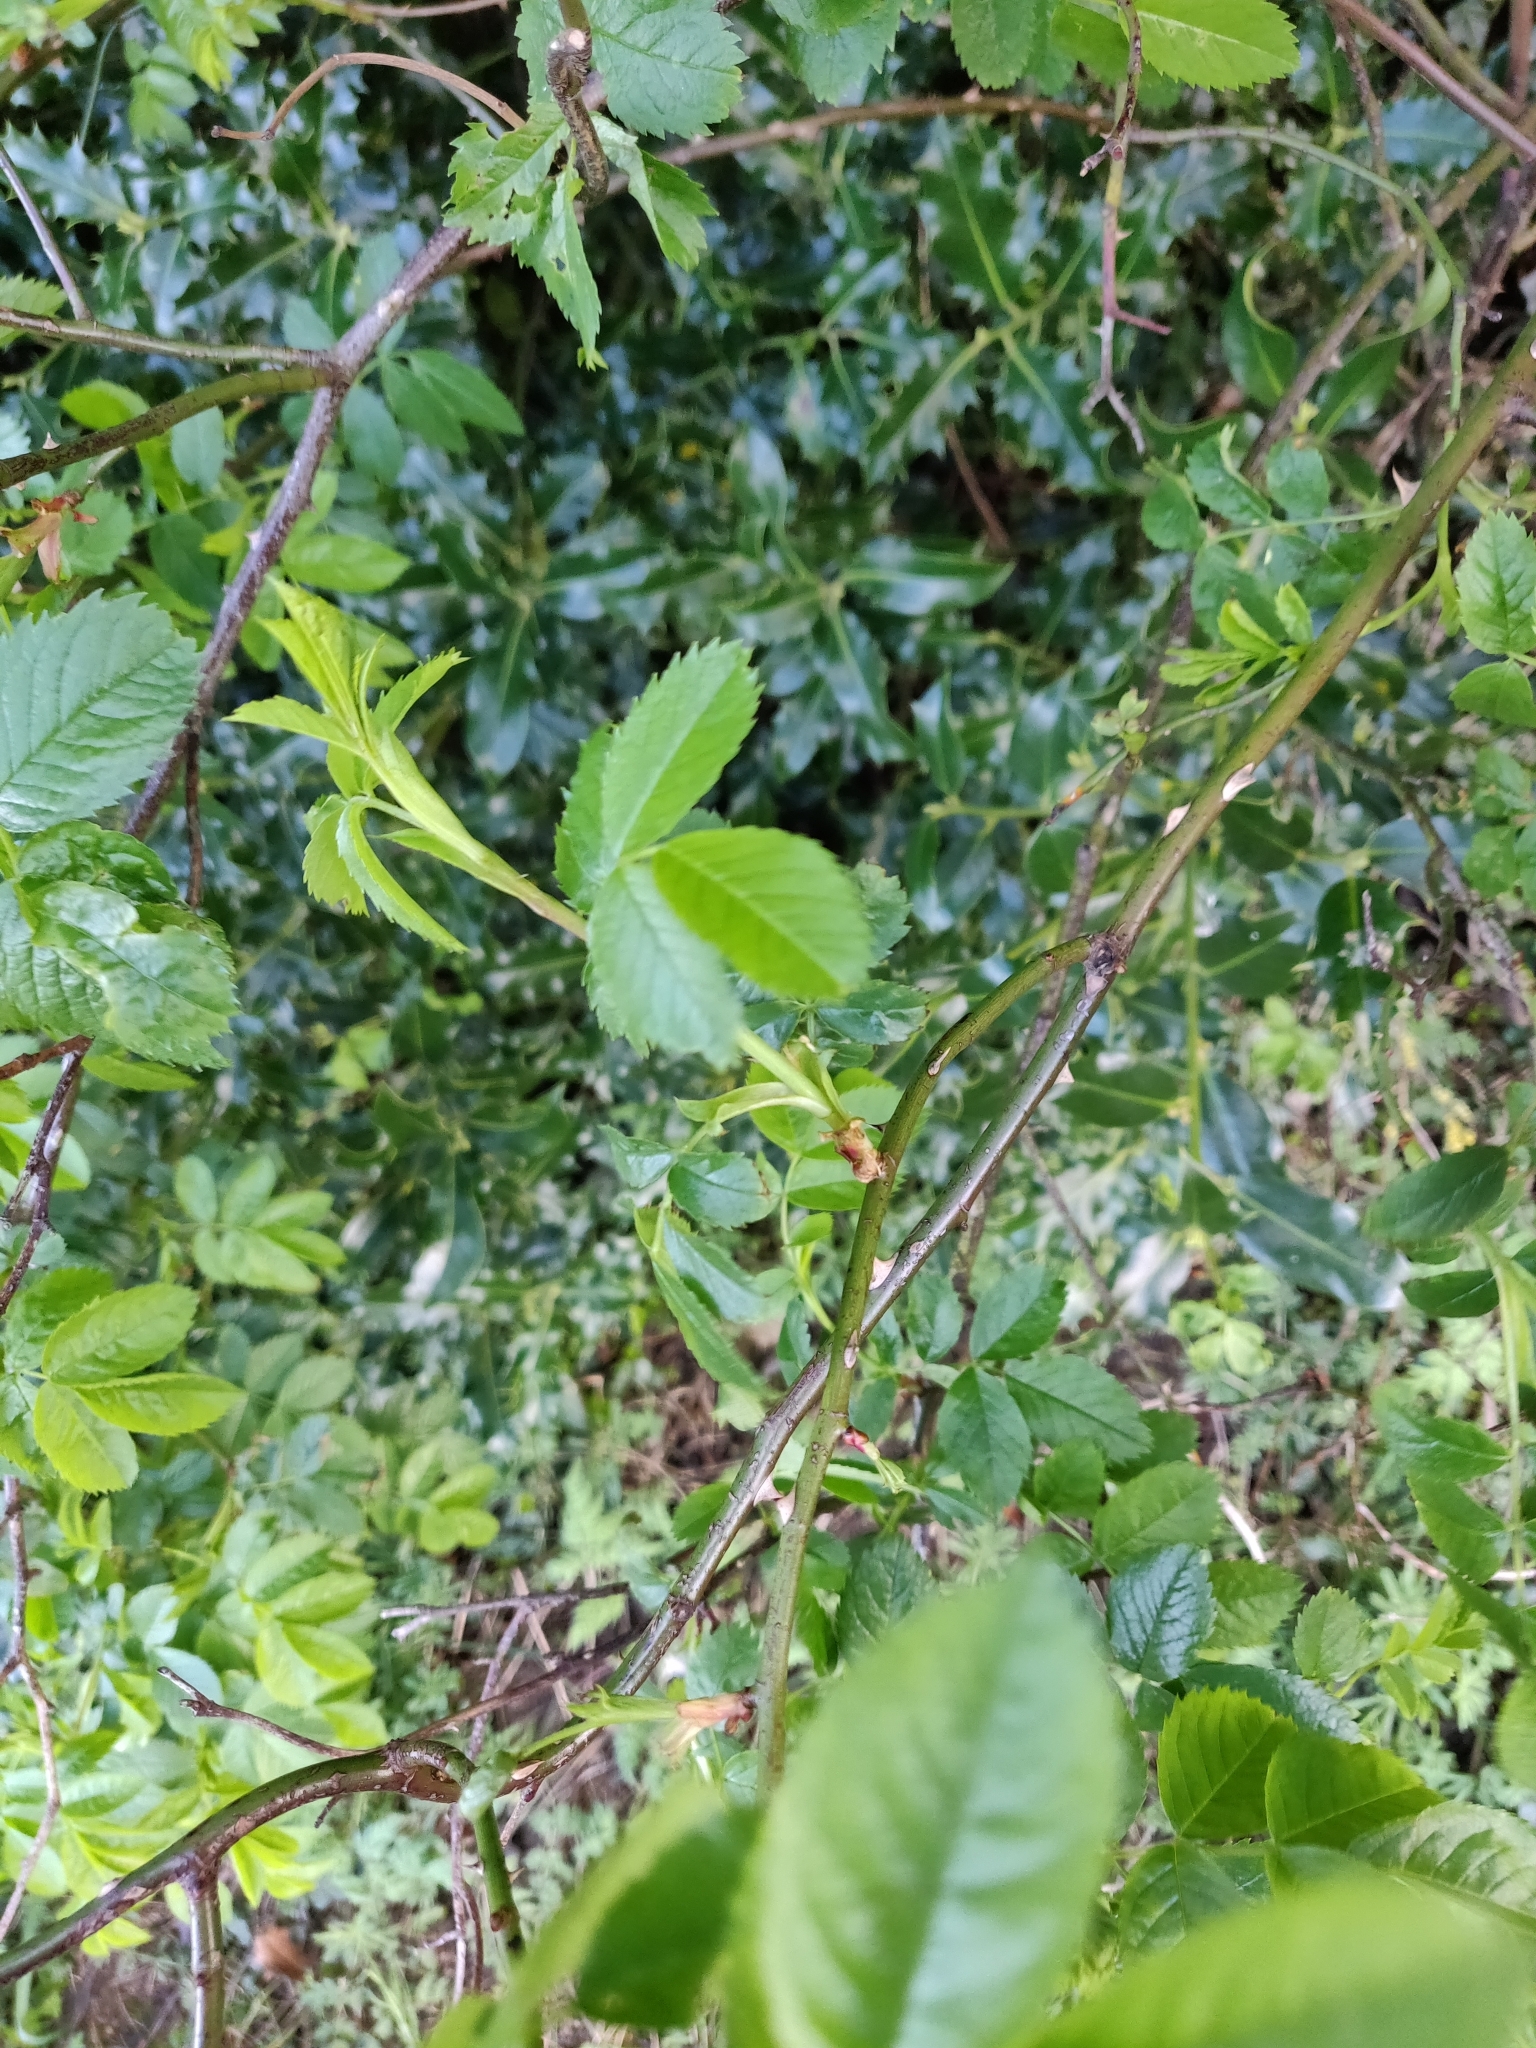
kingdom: Plantae
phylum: Tracheophyta
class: Magnoliopsida
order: Rosales
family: Rosaceae
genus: Rosa
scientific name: Rosa canina
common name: Dog rose
